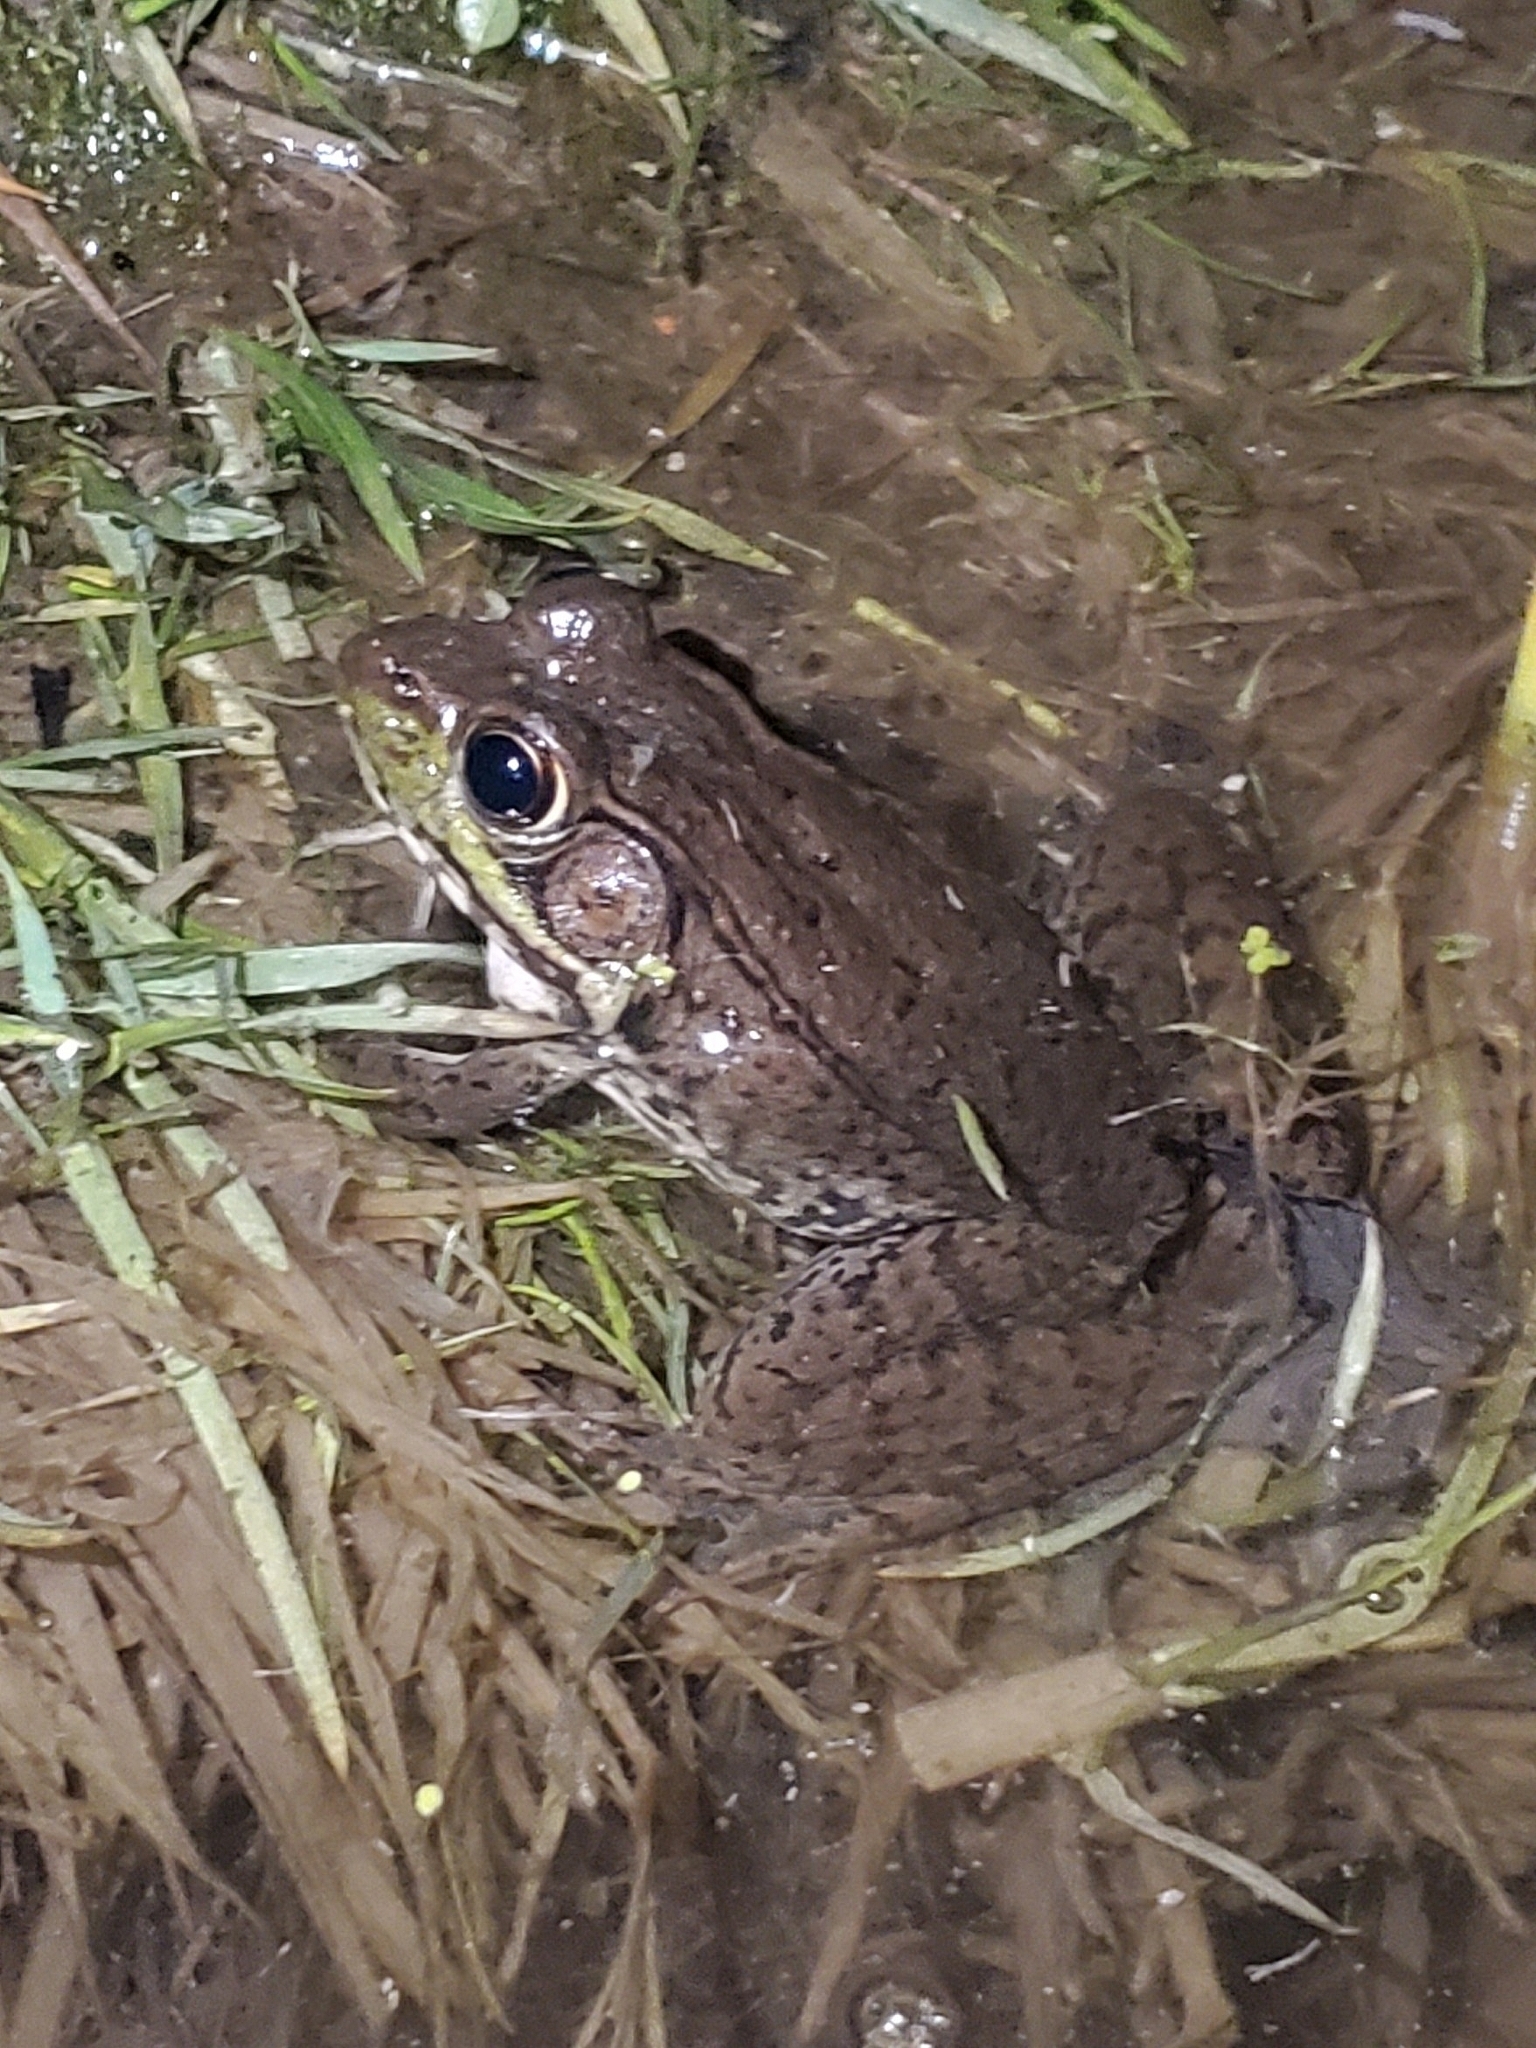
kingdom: Animalia
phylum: Chordata
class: Amphibia
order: Anura
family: Ranidae
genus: Lithobates
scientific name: Lithobates clamitans
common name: Green frog
